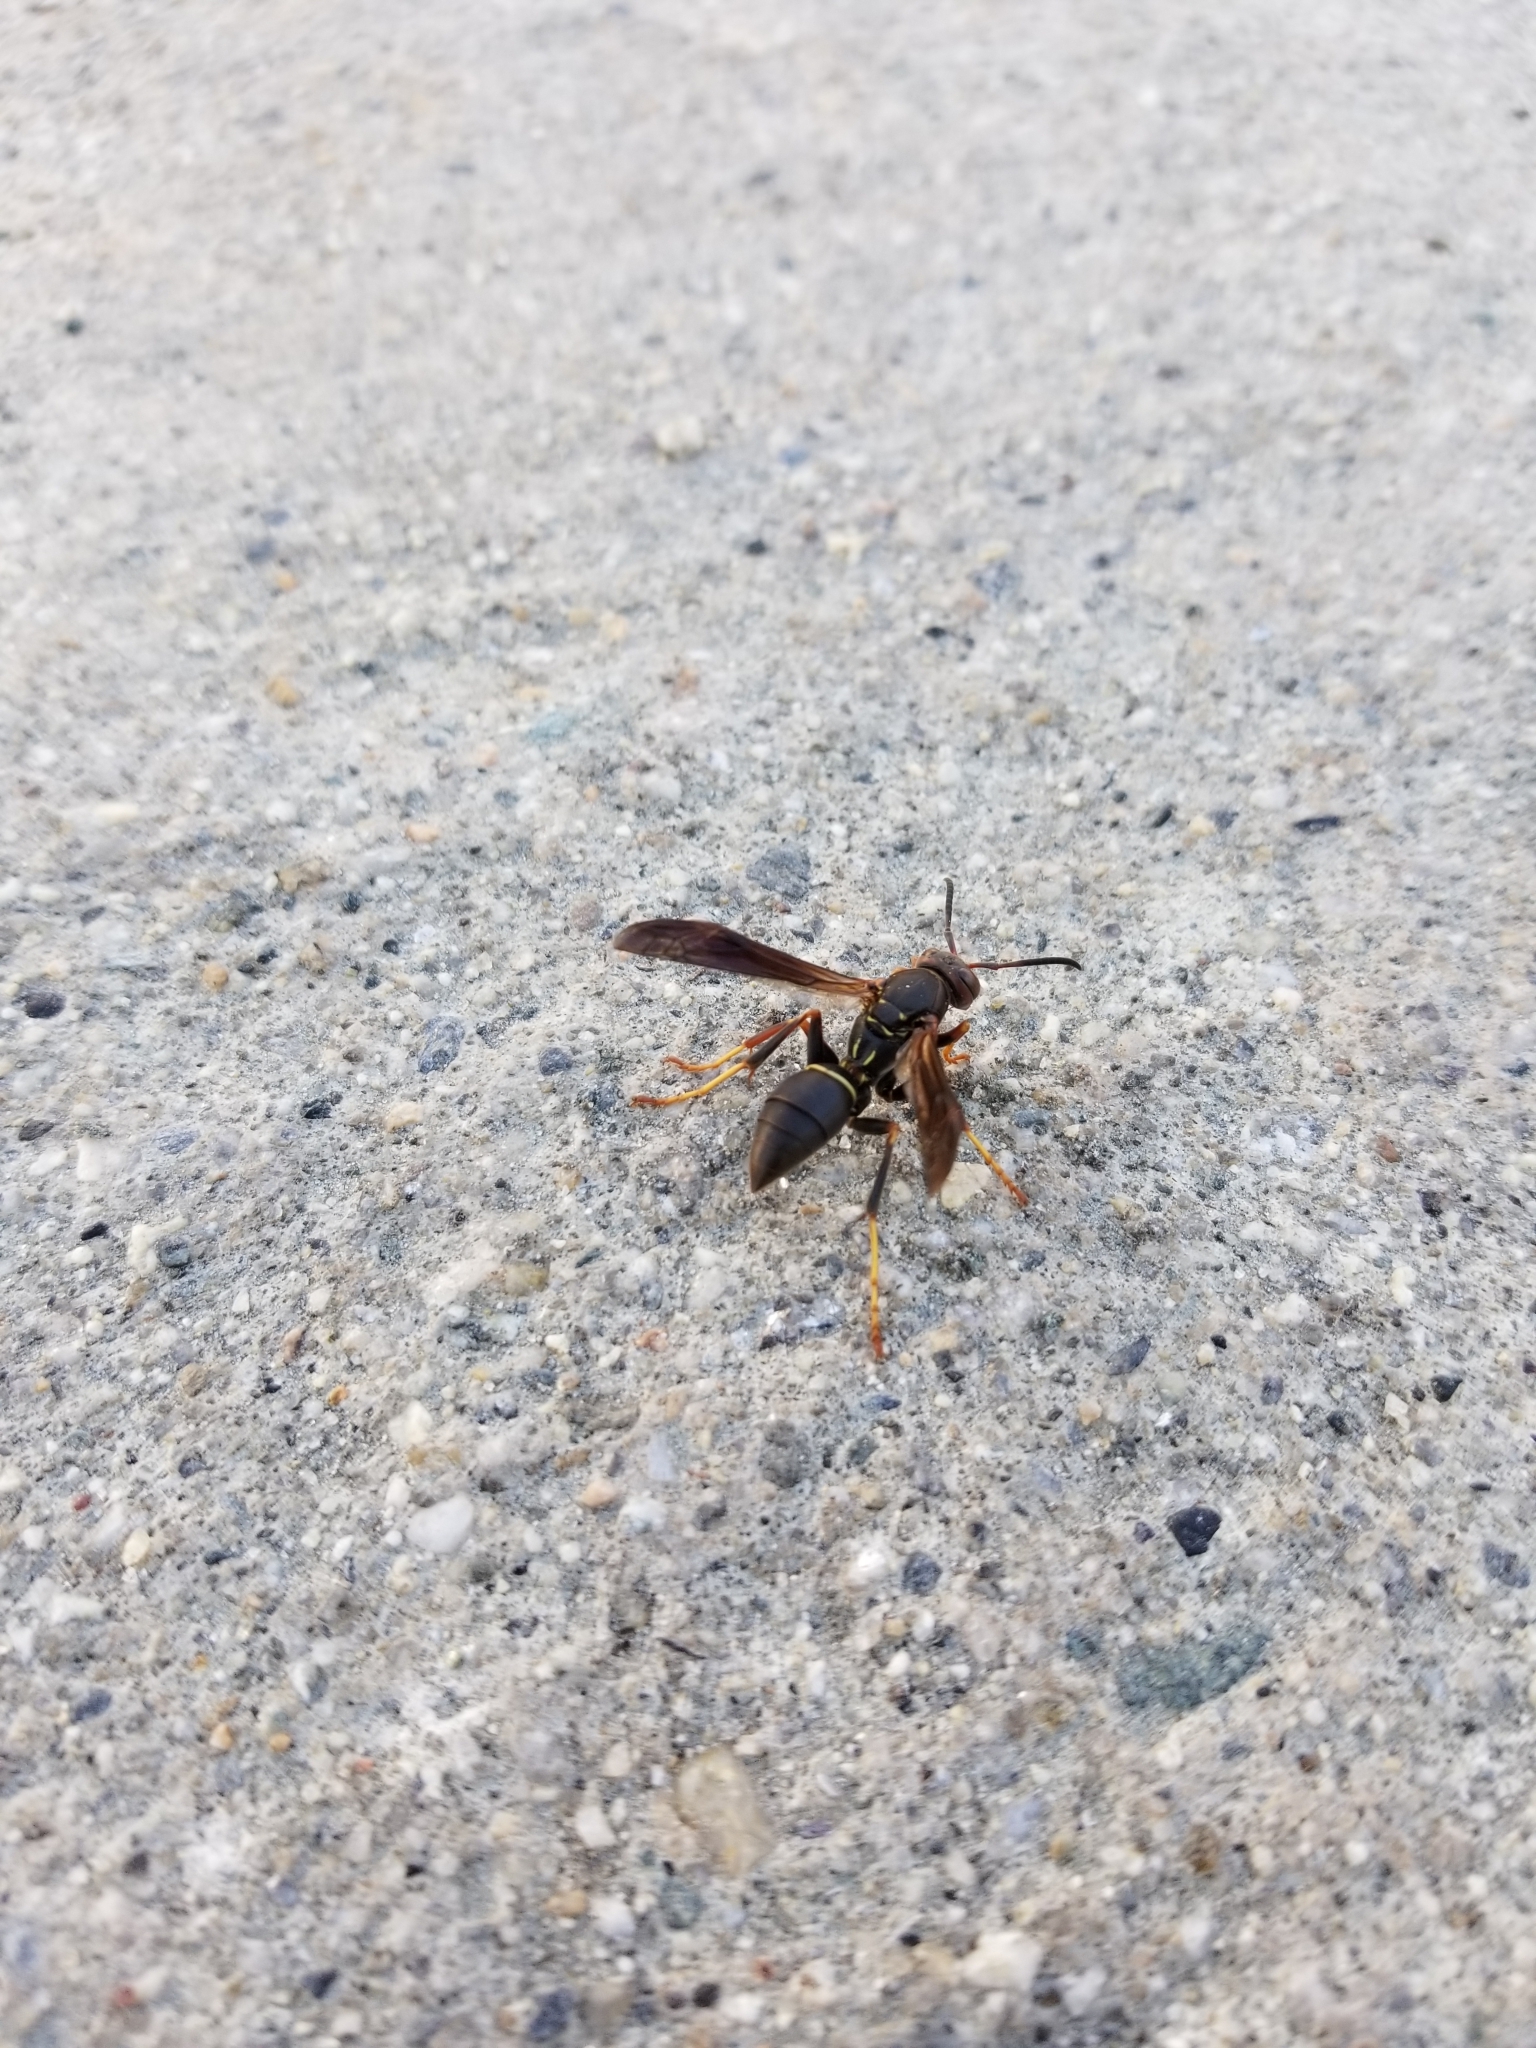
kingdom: Animalia
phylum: Arthropoda
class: Insecta
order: Hymenoptera
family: Eumenidae
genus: Polistes
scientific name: Polistes fuscatus
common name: Dark paper wasp
